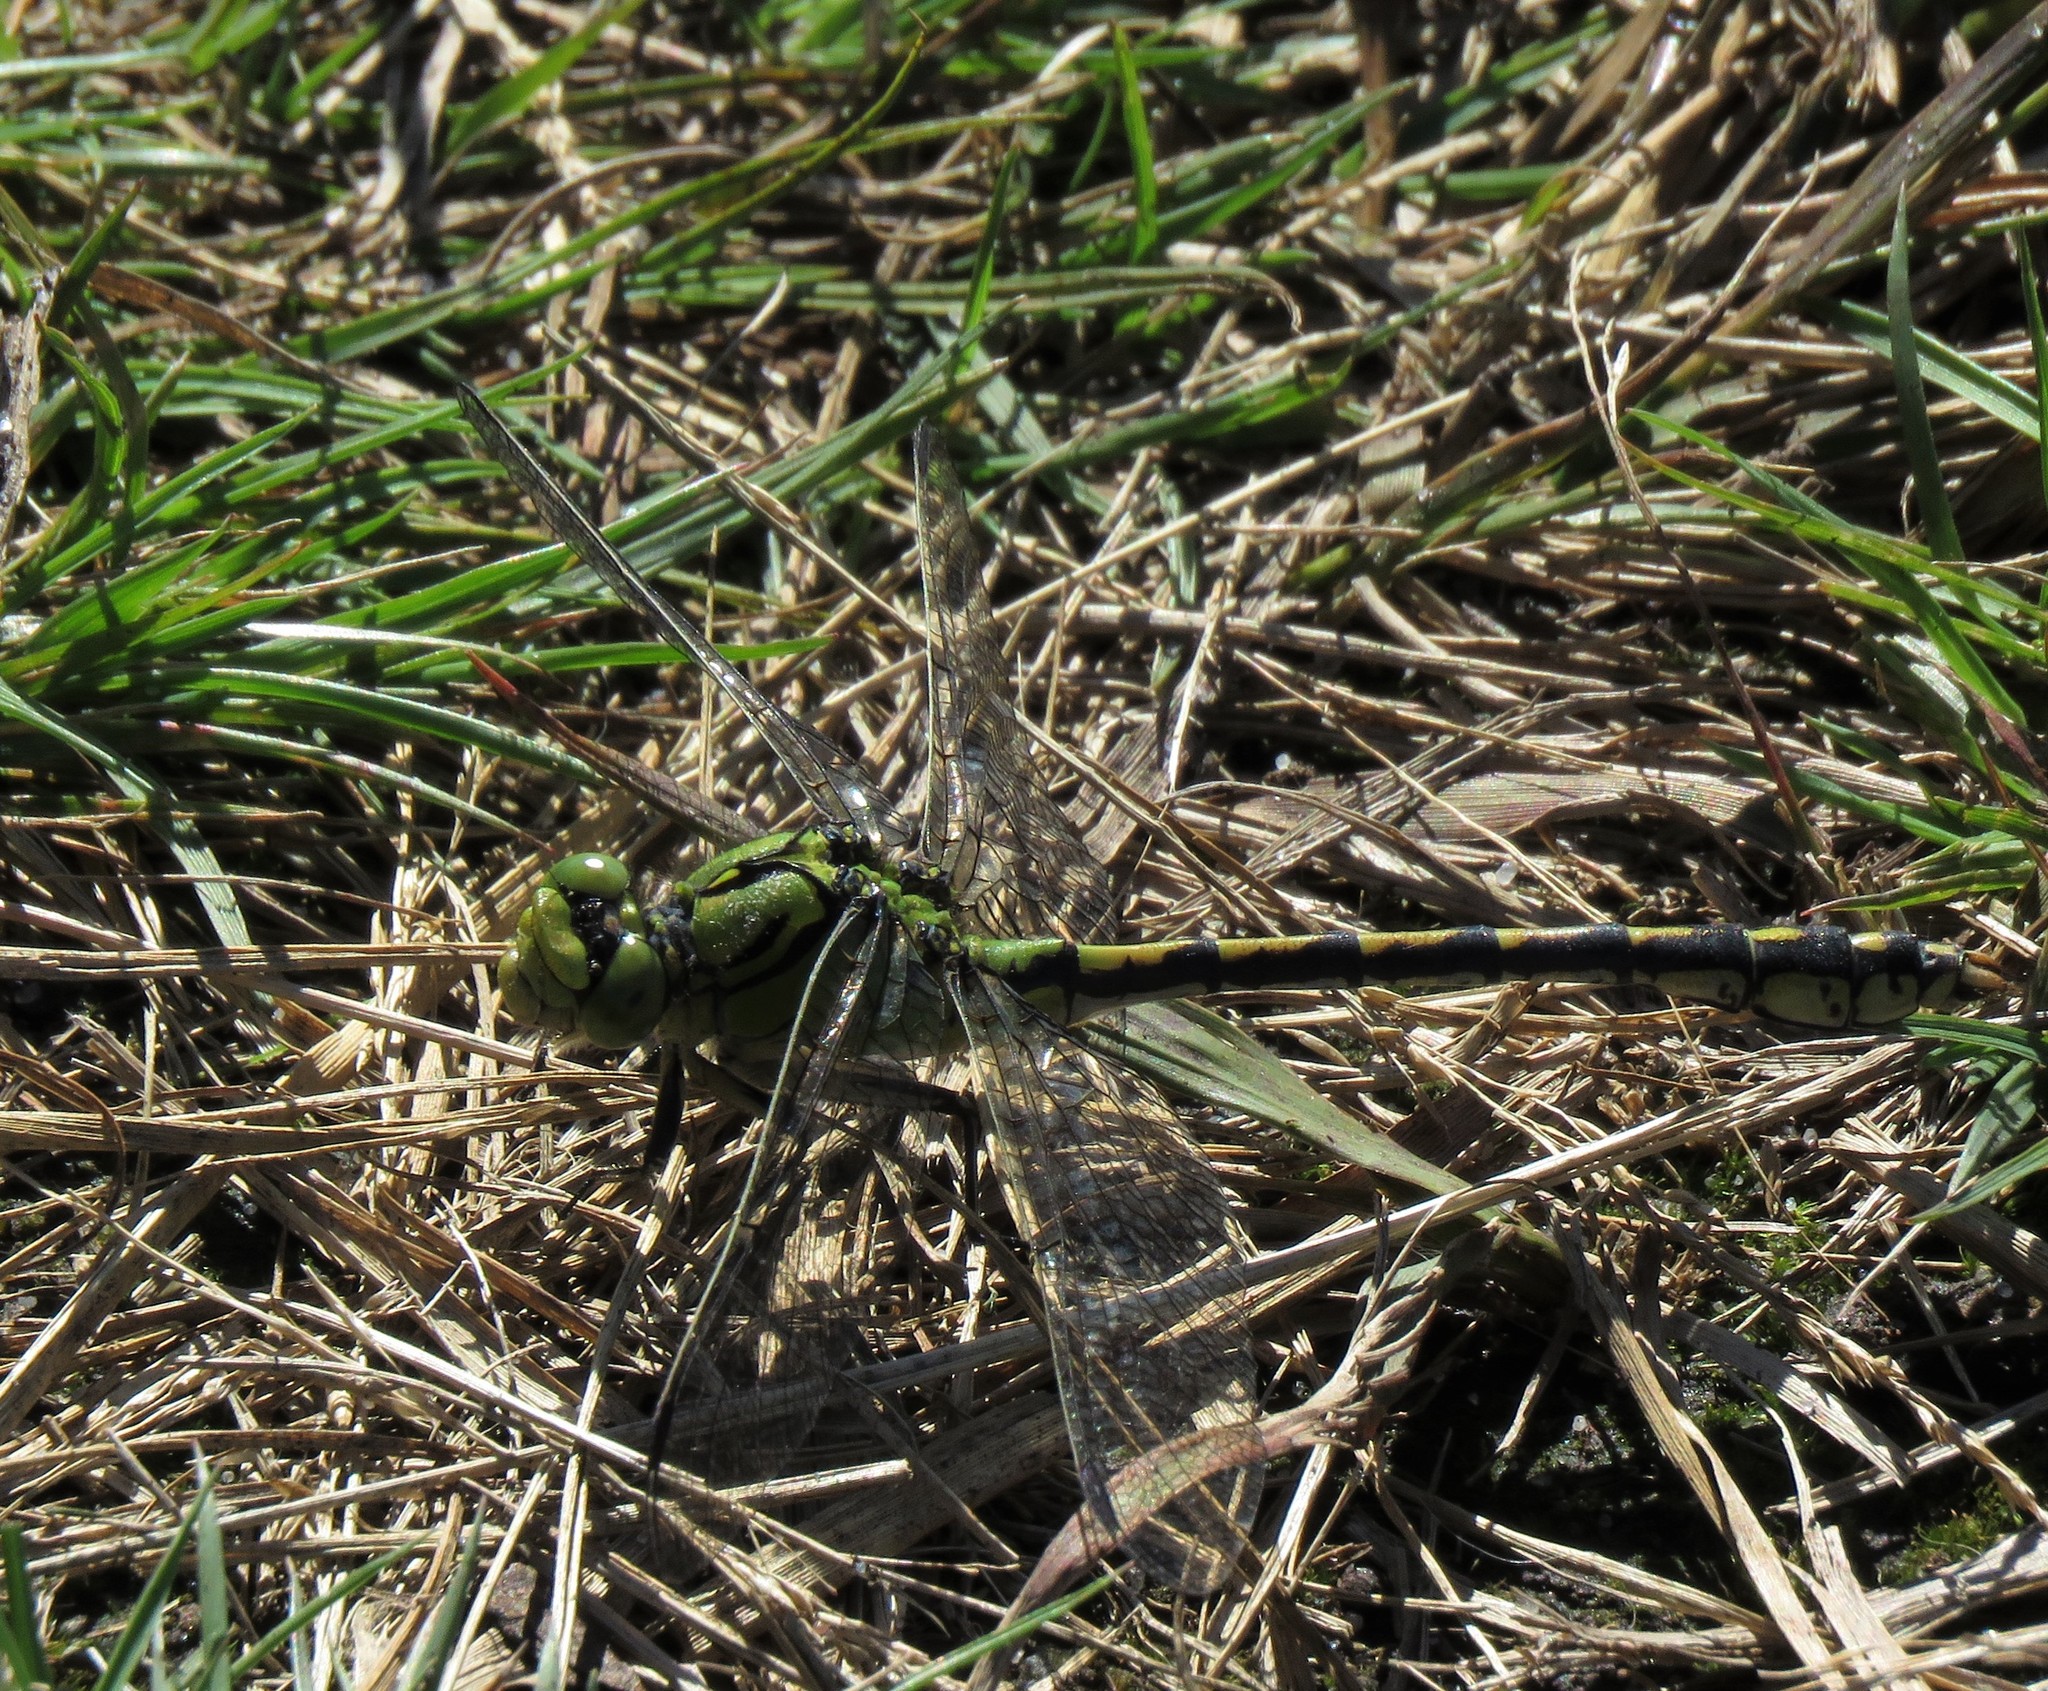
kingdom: Animalia
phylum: Arthropoda
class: Insecta
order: Odonata
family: Gomphidae
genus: Ophiogomphus
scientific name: Ophiogomphus cecilia
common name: Green snaketail
